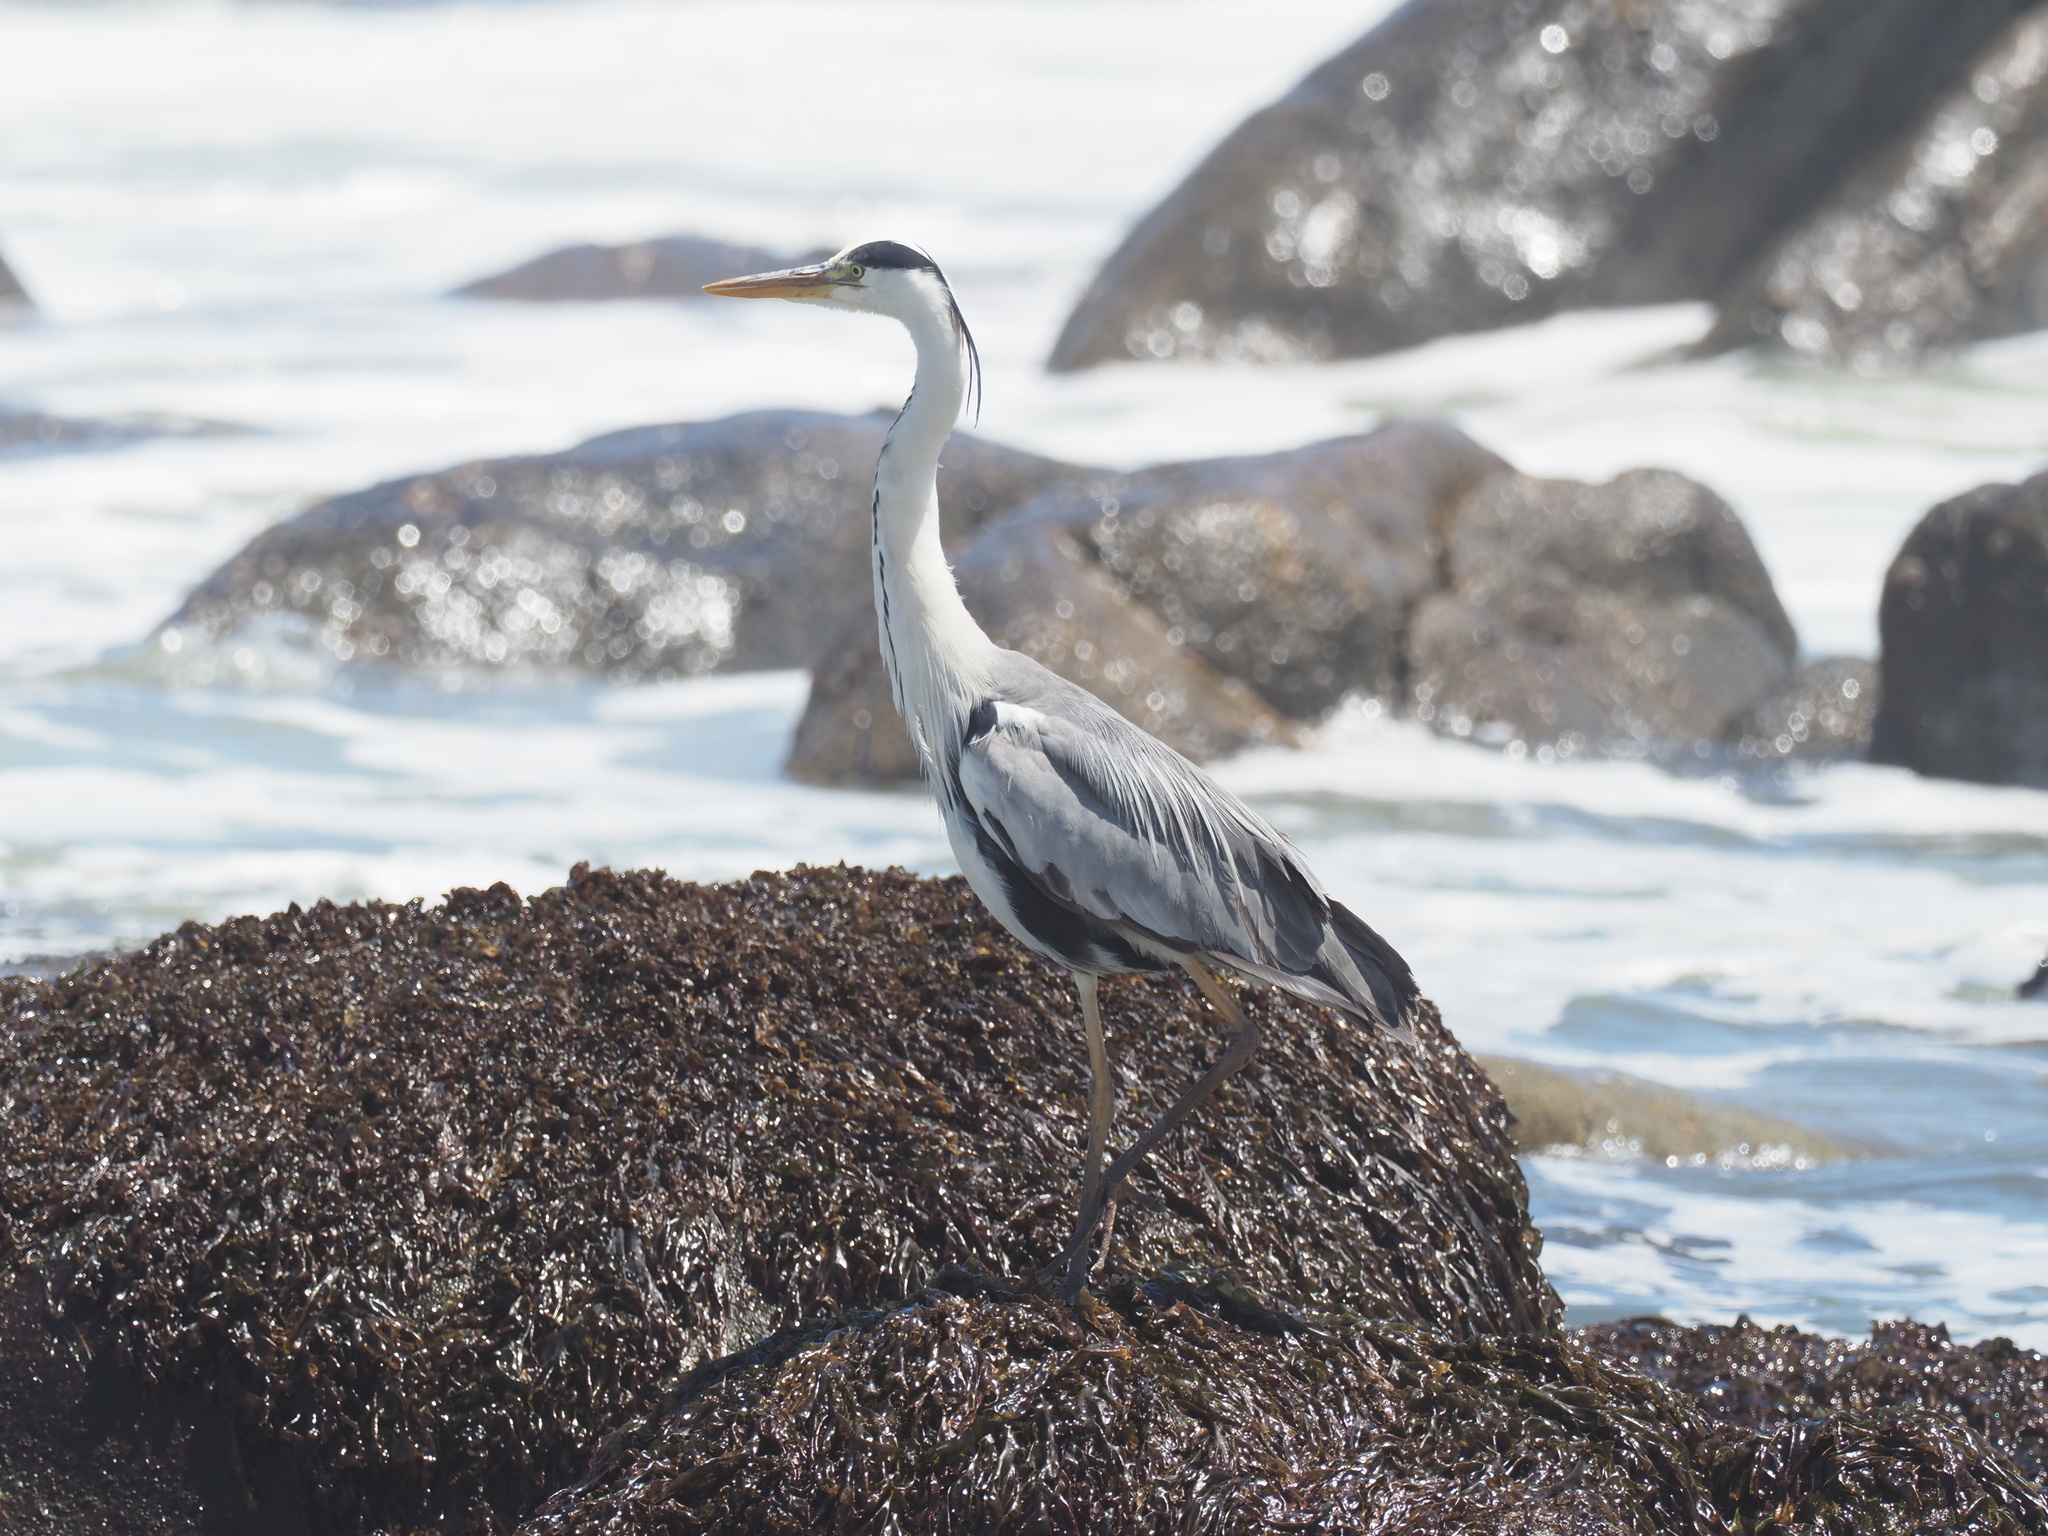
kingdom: Animalia
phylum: Chordata
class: Aves
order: Pelecaniformes
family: Ardeidae
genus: Ardea
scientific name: Ardea cinerea
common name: Grey heron
